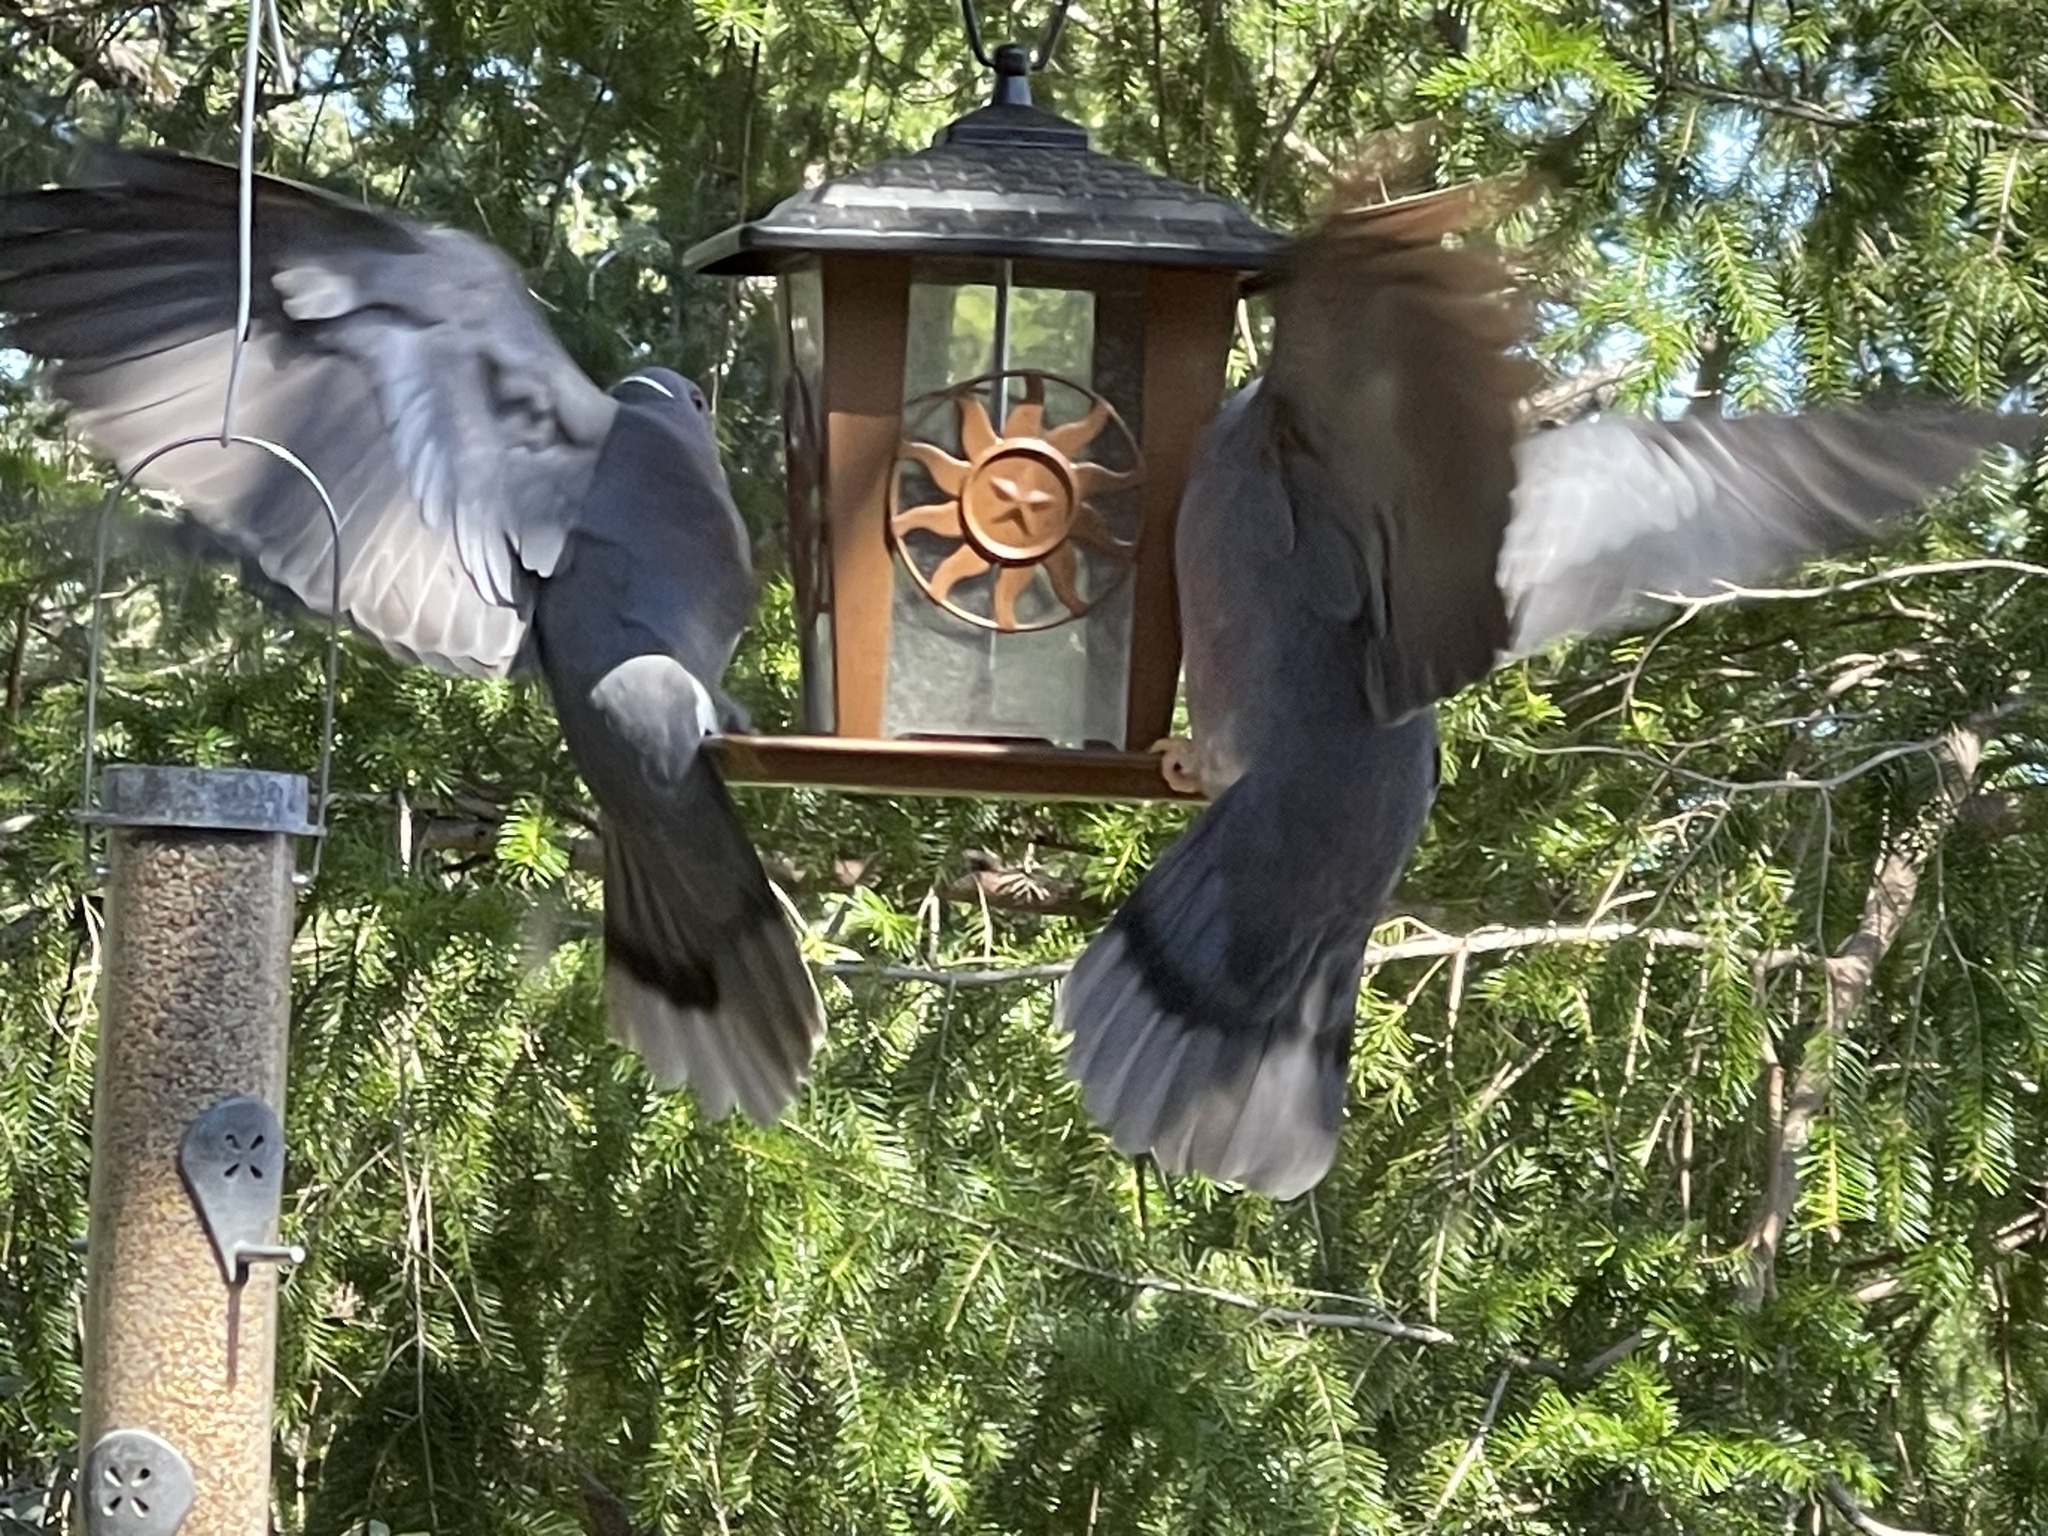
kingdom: Animalia
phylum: Chordata
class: Aves
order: Columbiformes
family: Columbidae
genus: Patagioenas
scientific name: Patagioenas fasciata
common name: Band-tailed pigeon
